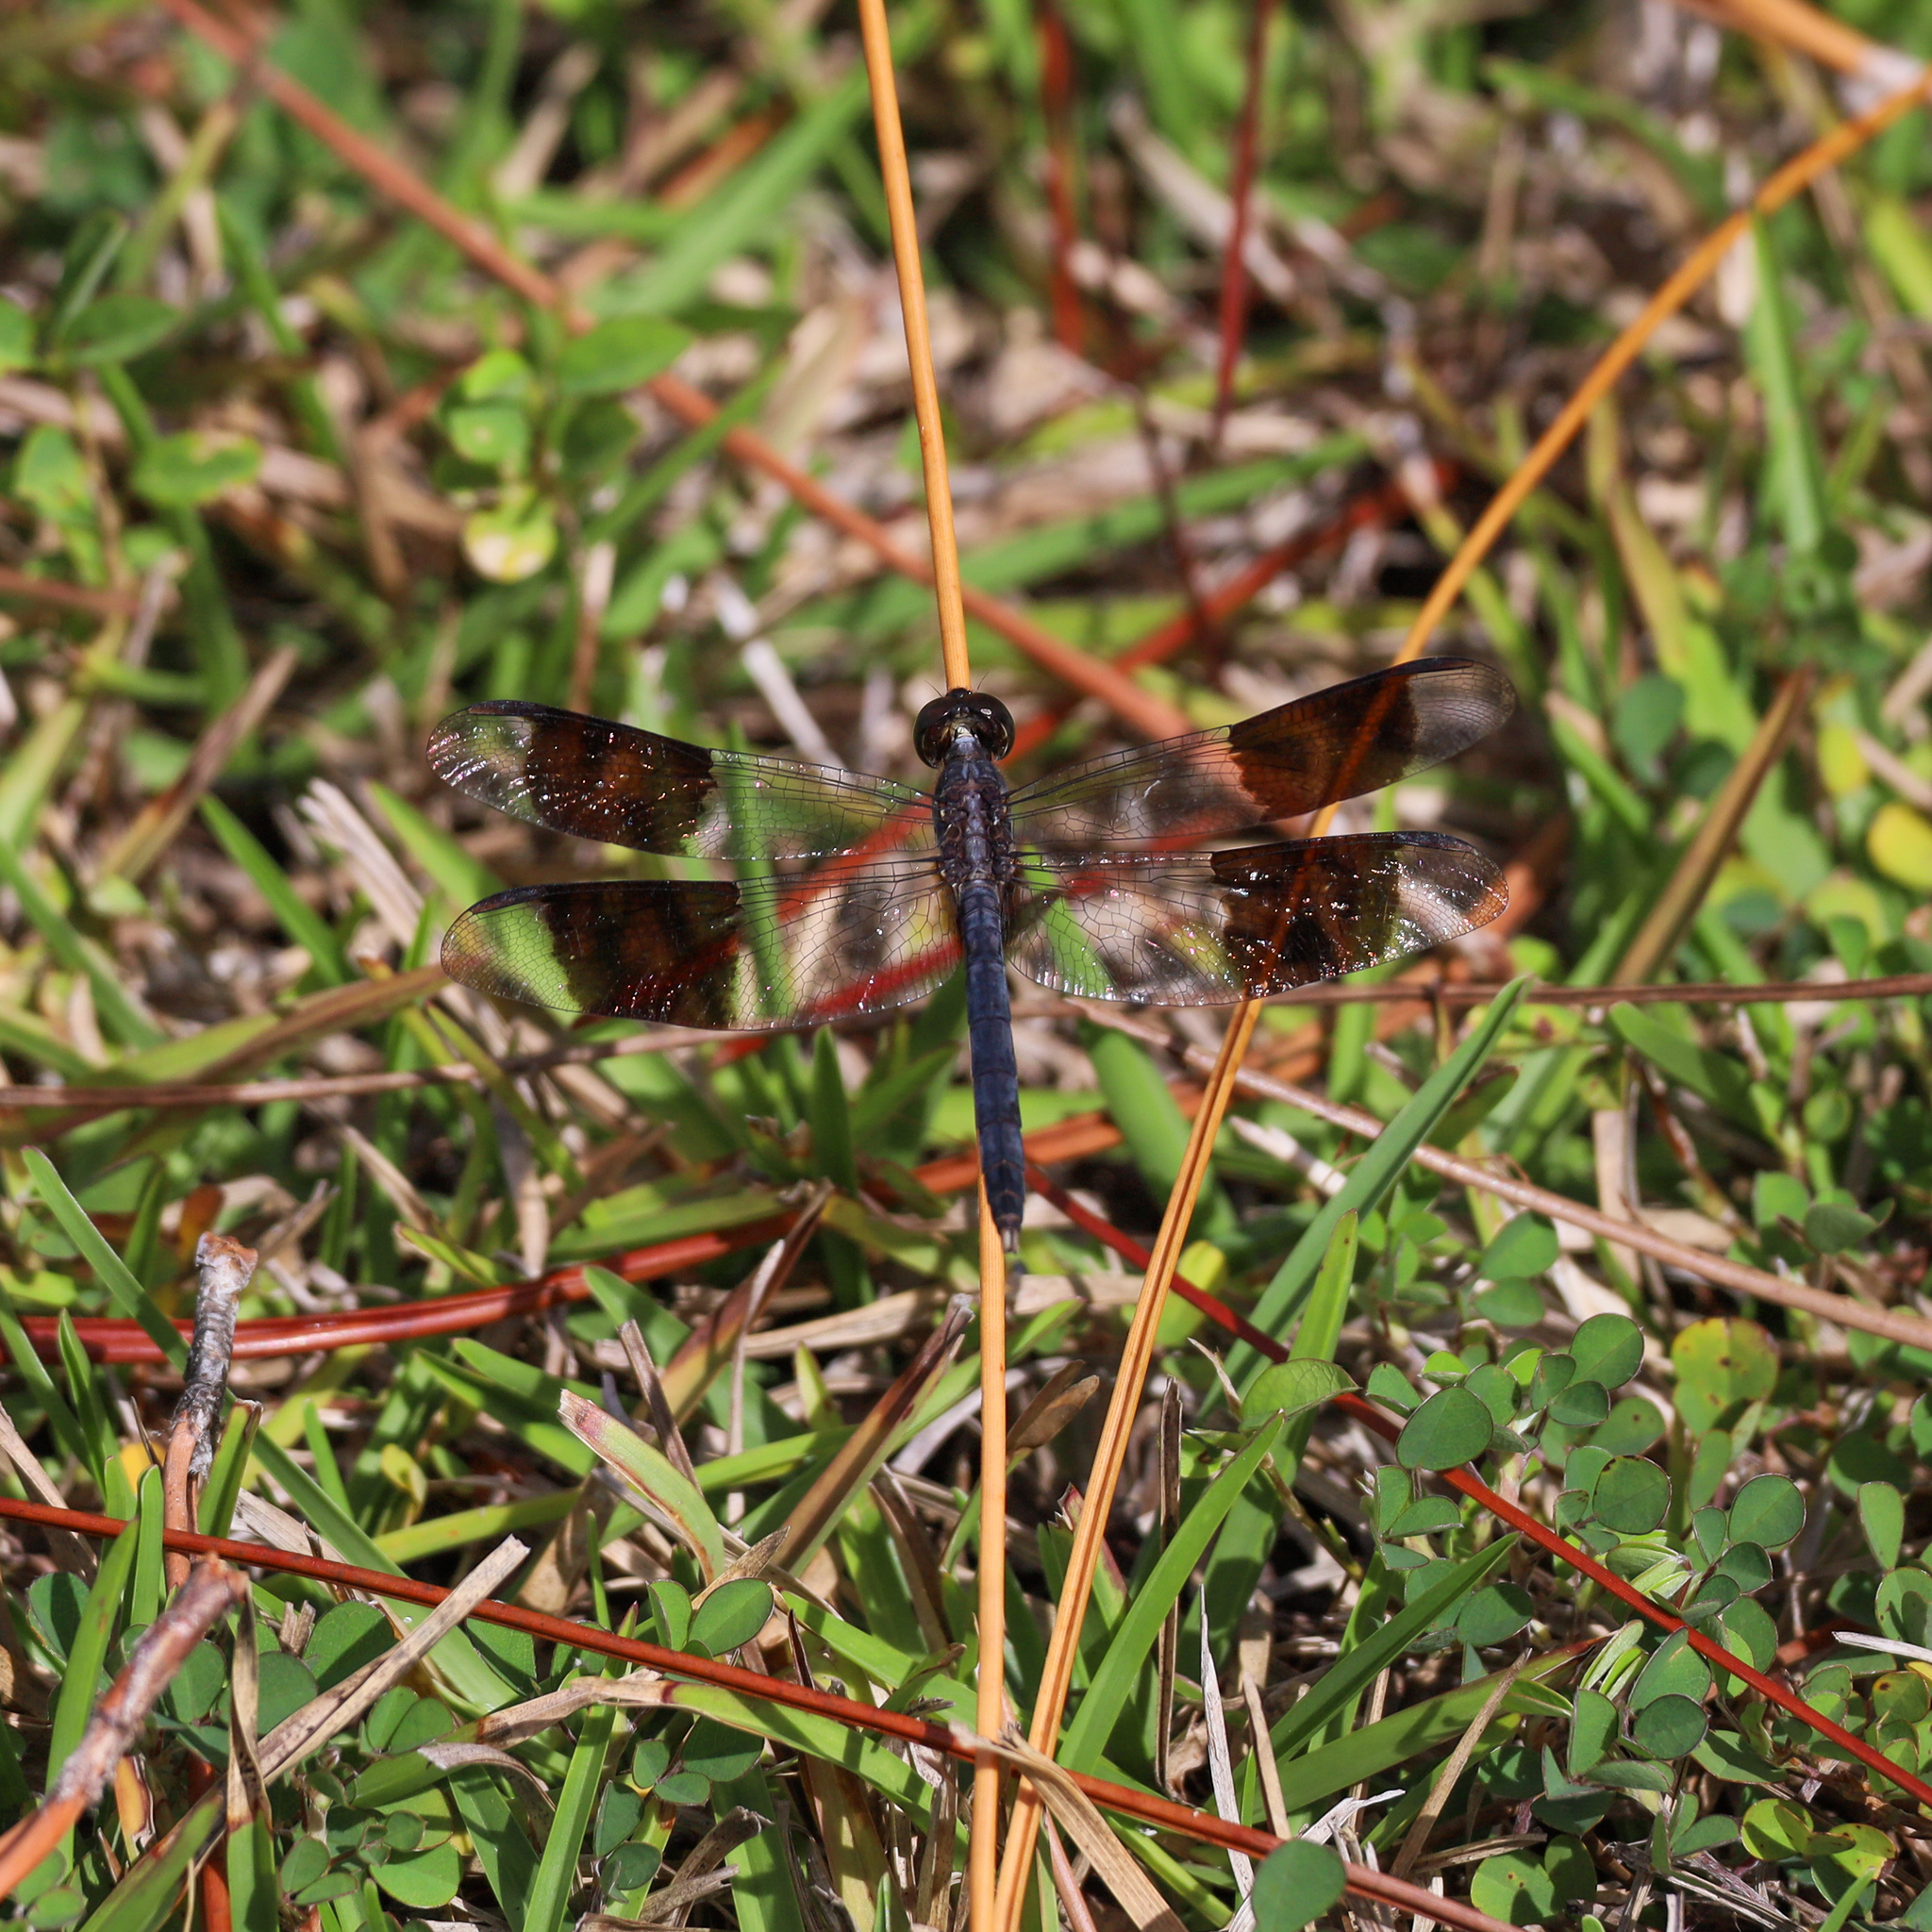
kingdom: Animalia
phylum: Arthropoda
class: Insecta
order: Odonata
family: Libellulidae
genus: Erythrodiplax
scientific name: Erythrodiplax umbrata
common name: Band-winged dragonlet
